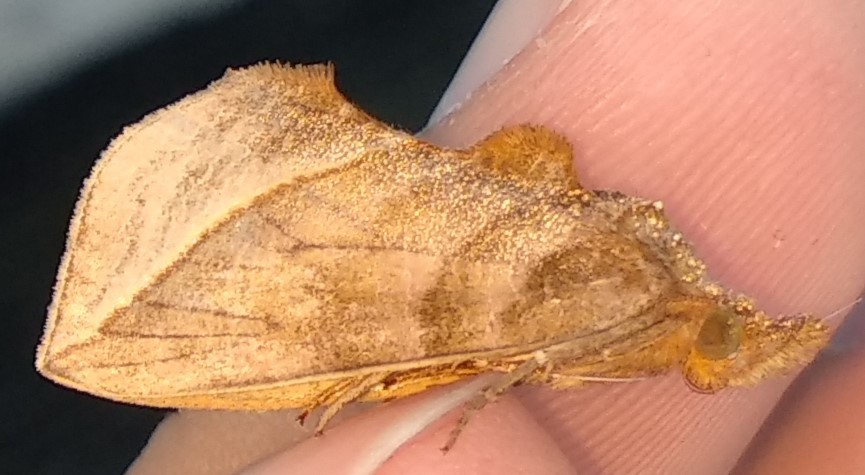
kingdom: Animalia
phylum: Arthropoda
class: Insecta
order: Lepidoptera
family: Erebidae
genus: Calyptra
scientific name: Calyptra canadensis
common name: Canadian owlet
